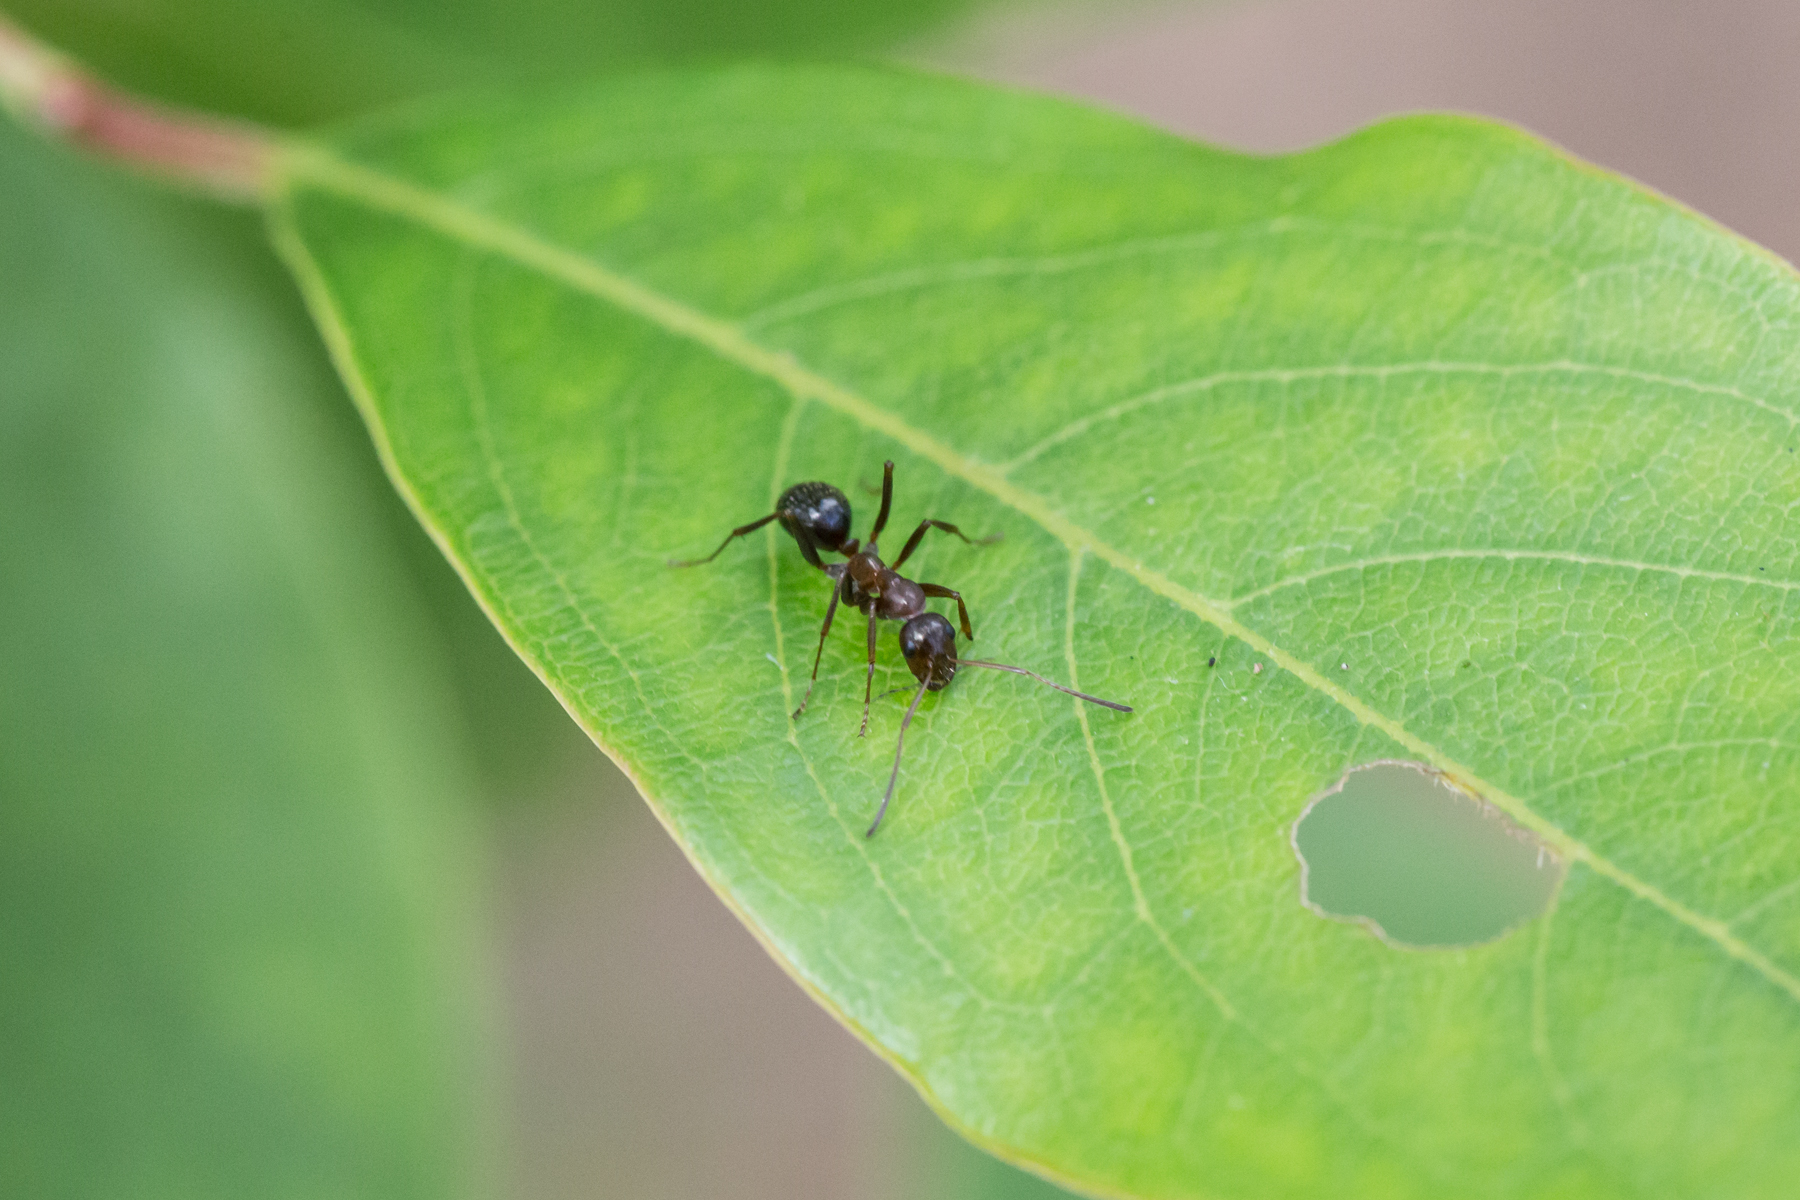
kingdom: Animalia
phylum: Arthropoda
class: Insecta
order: Hymenoptera
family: Formicidae
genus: Formica
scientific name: Formica pallidefulva
